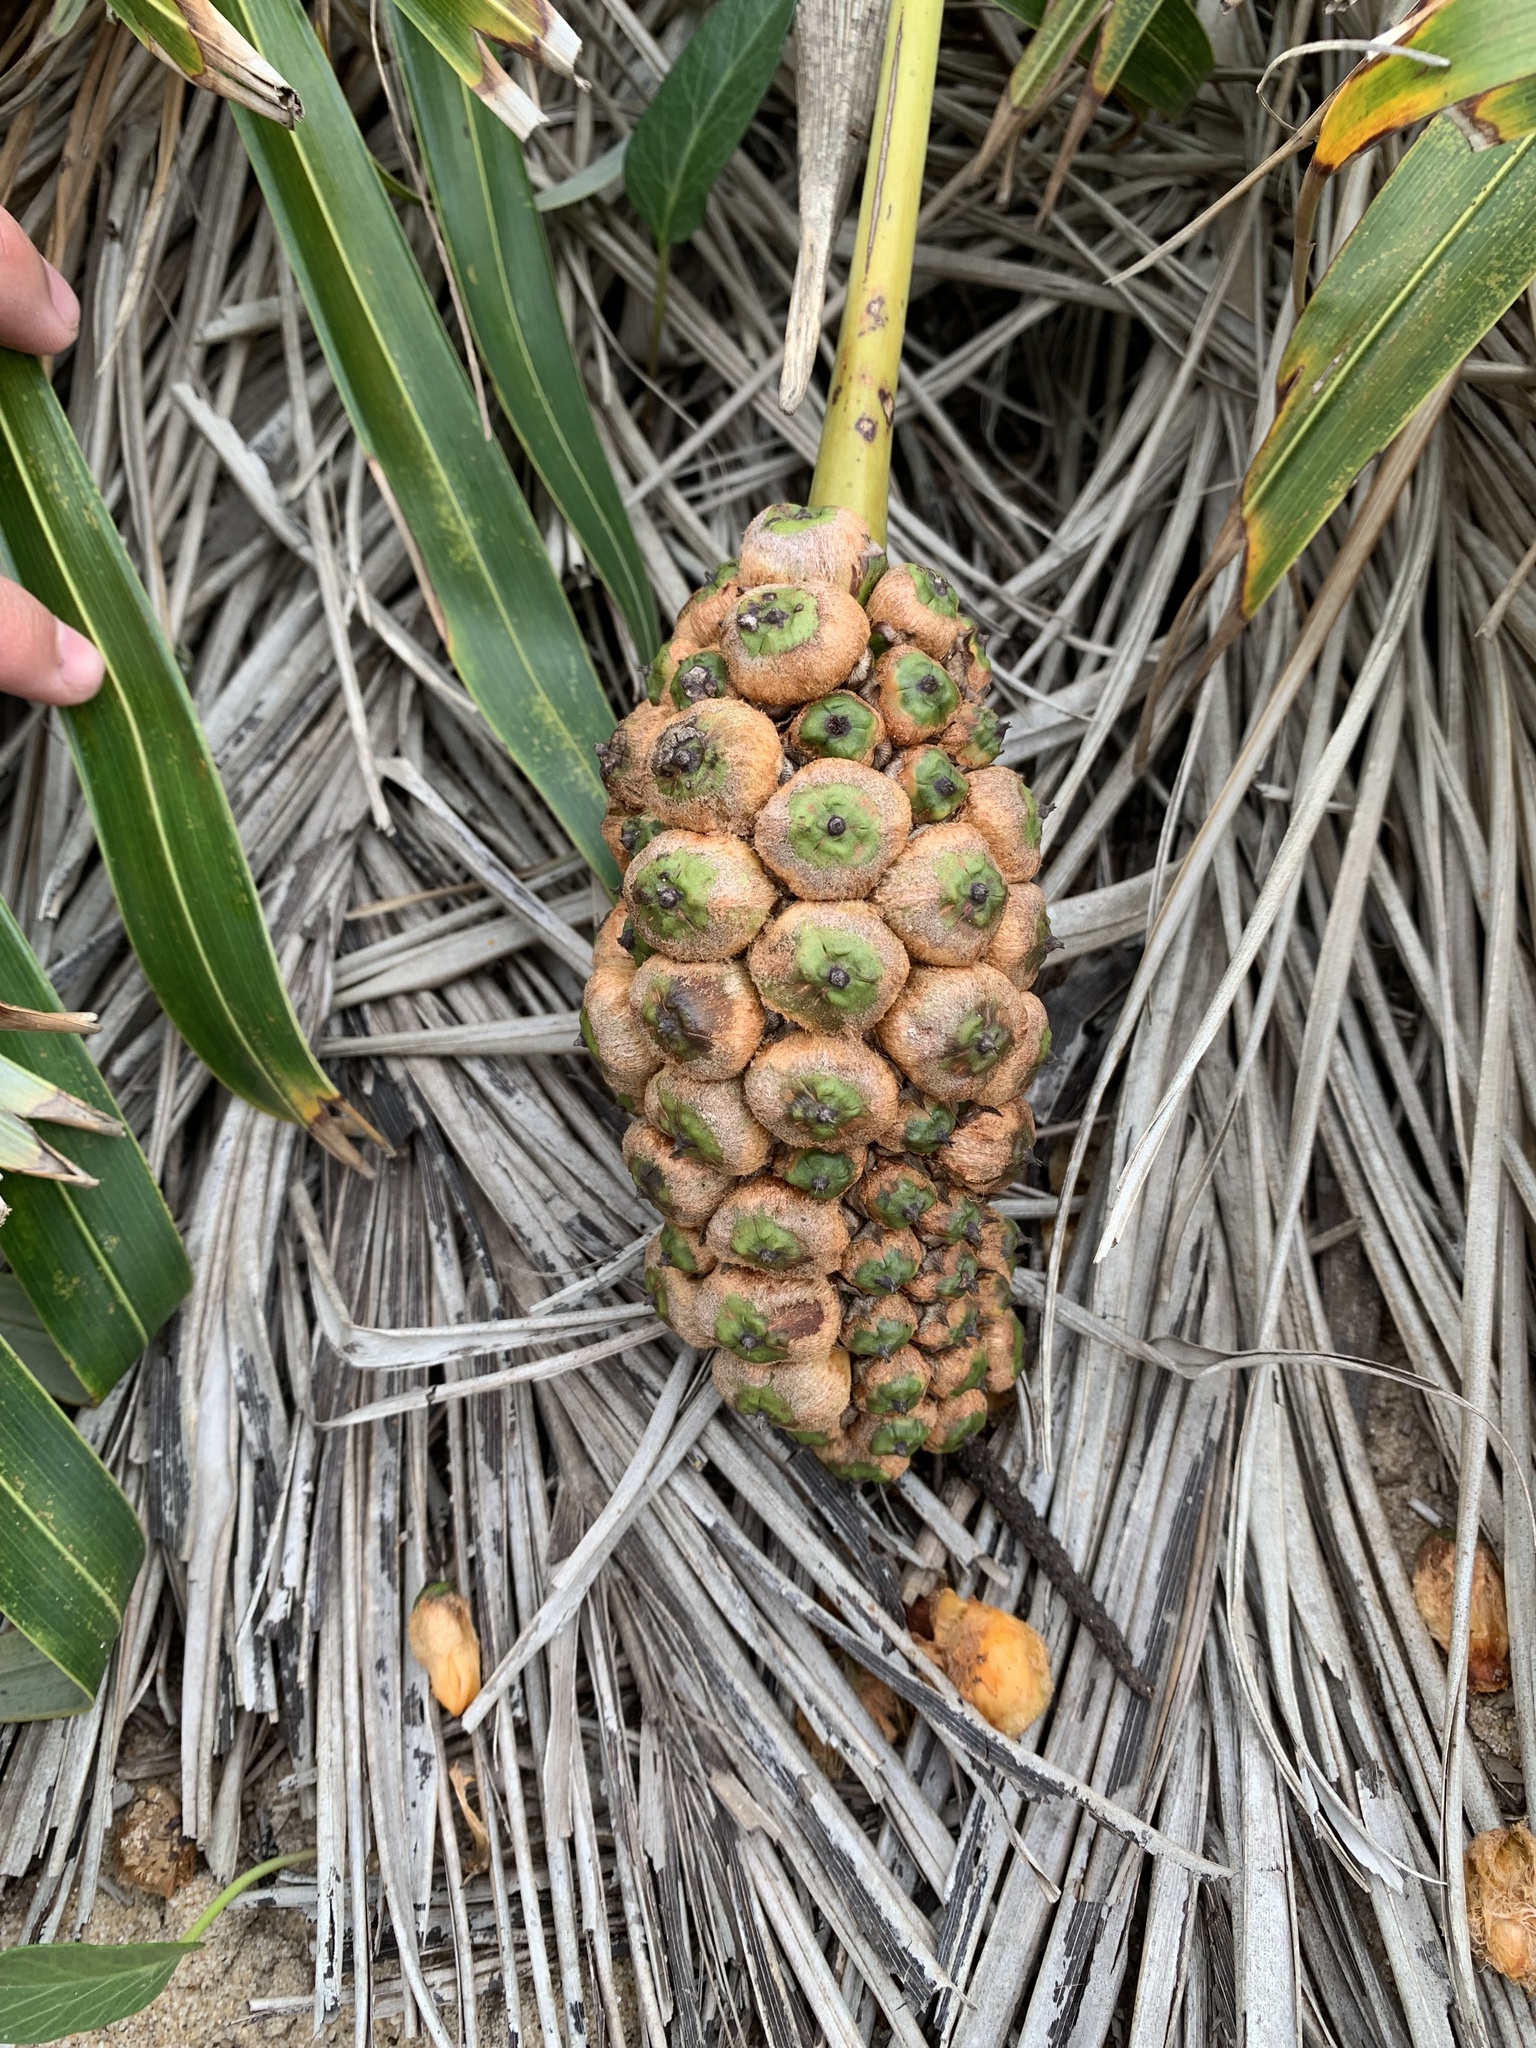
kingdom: Plantae
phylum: Tracheophyta
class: Liliopsida
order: Arecales
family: Arecaceae
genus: Allagoptera
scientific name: Allagoptera arenaria
